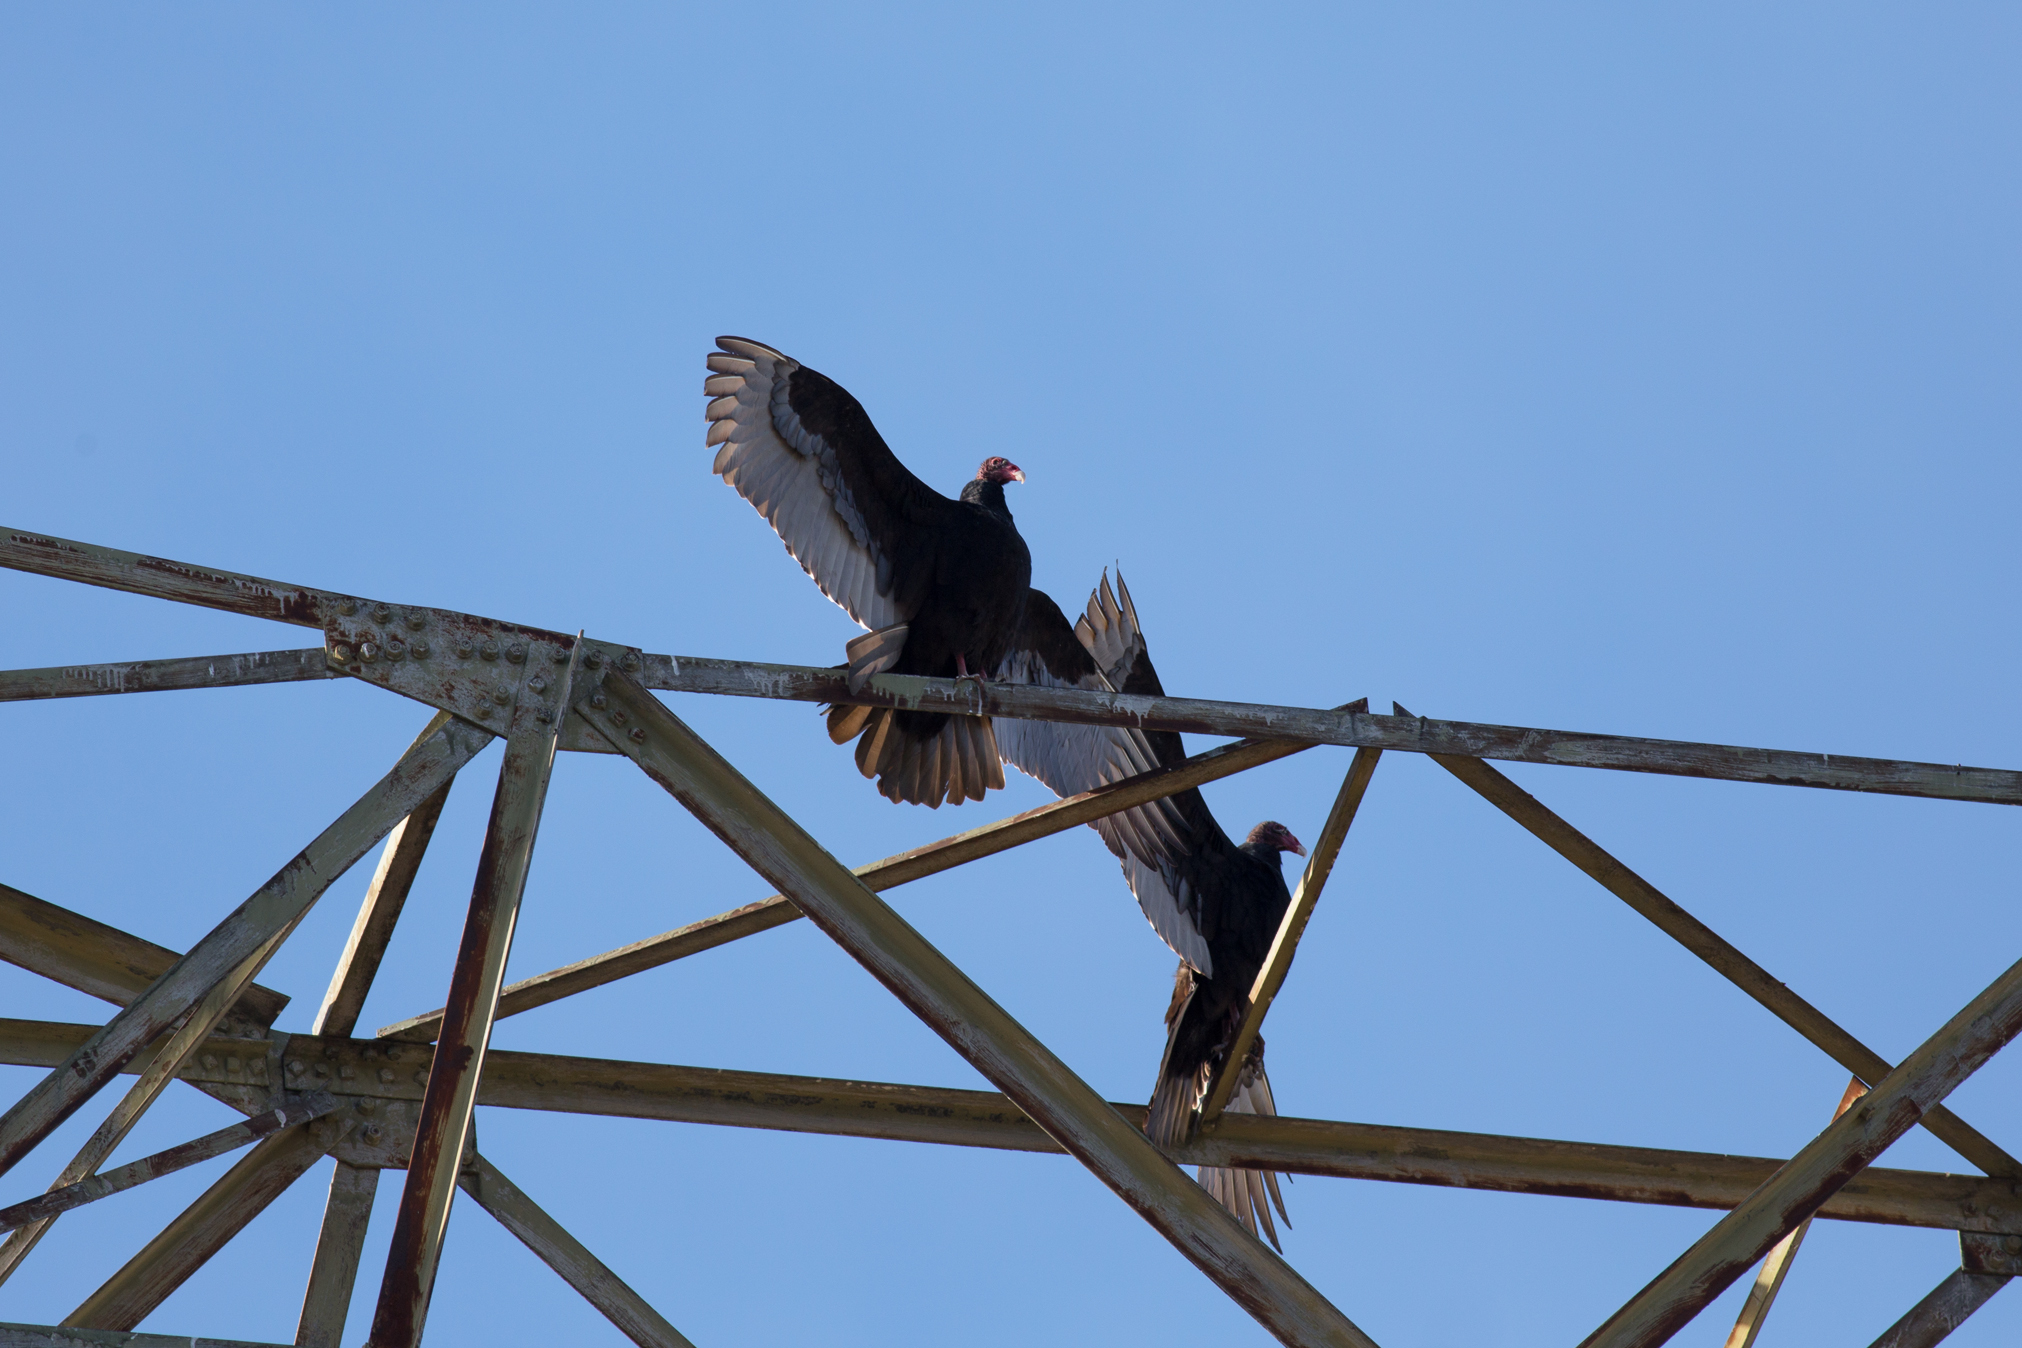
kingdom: Animalia
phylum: Chordata
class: Aves
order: Accipitriformes
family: Cathartidae
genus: Cathartes
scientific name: Cathartes aura
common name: Turkey vulture
